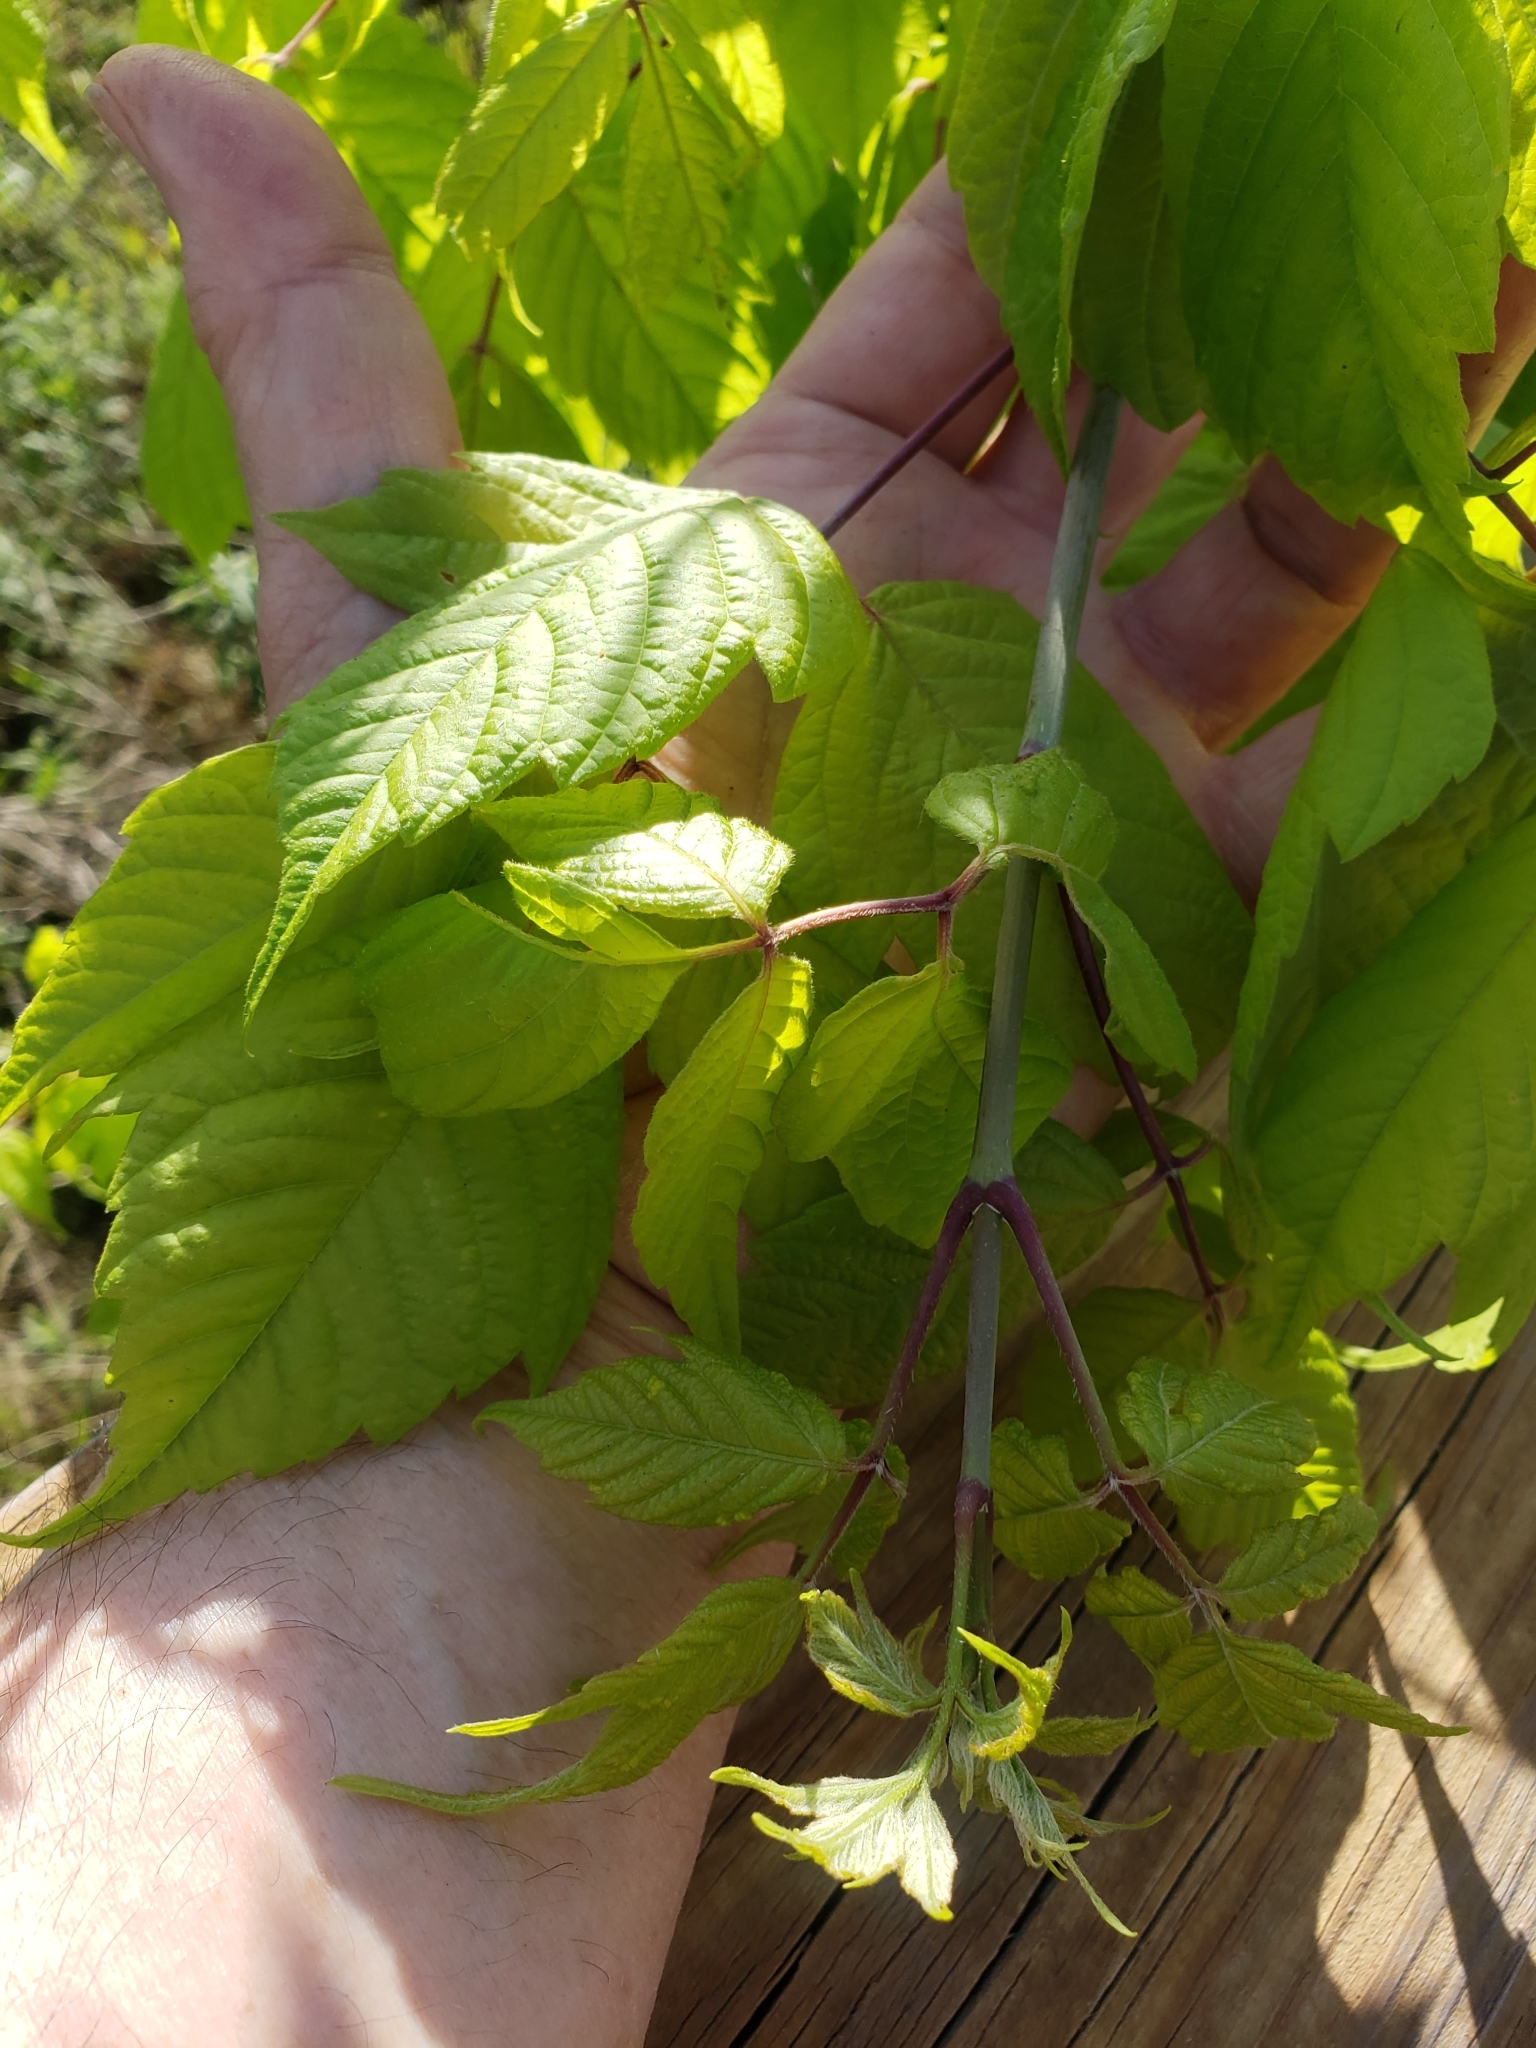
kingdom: Plantae
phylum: Tracheophyta
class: Magnoliopsida
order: Sapindales
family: Sapindaceae
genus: Acer
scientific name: Acer negundo
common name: Ashleaf maple
